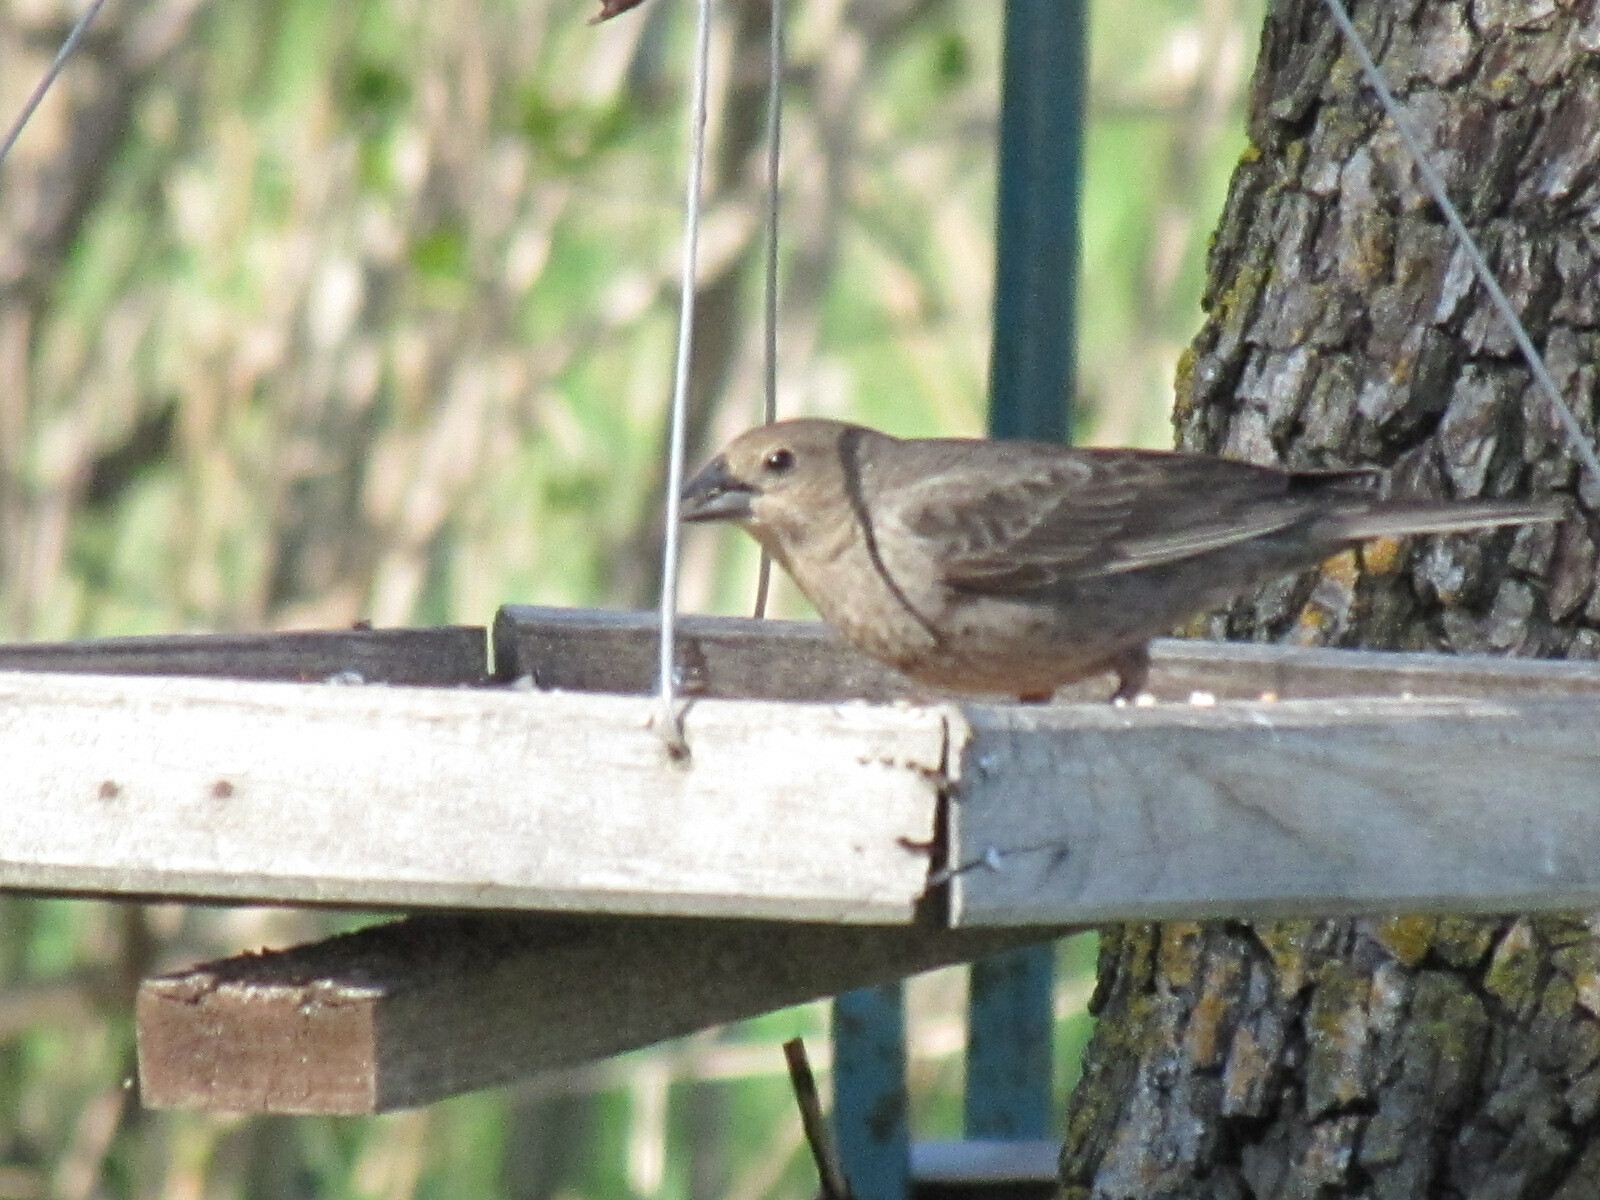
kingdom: Animalia
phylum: Chordata
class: Aves
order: Passeriformes
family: Icteridae
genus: Molothrus
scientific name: Molothrus ater
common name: Brown-headed cowbird
